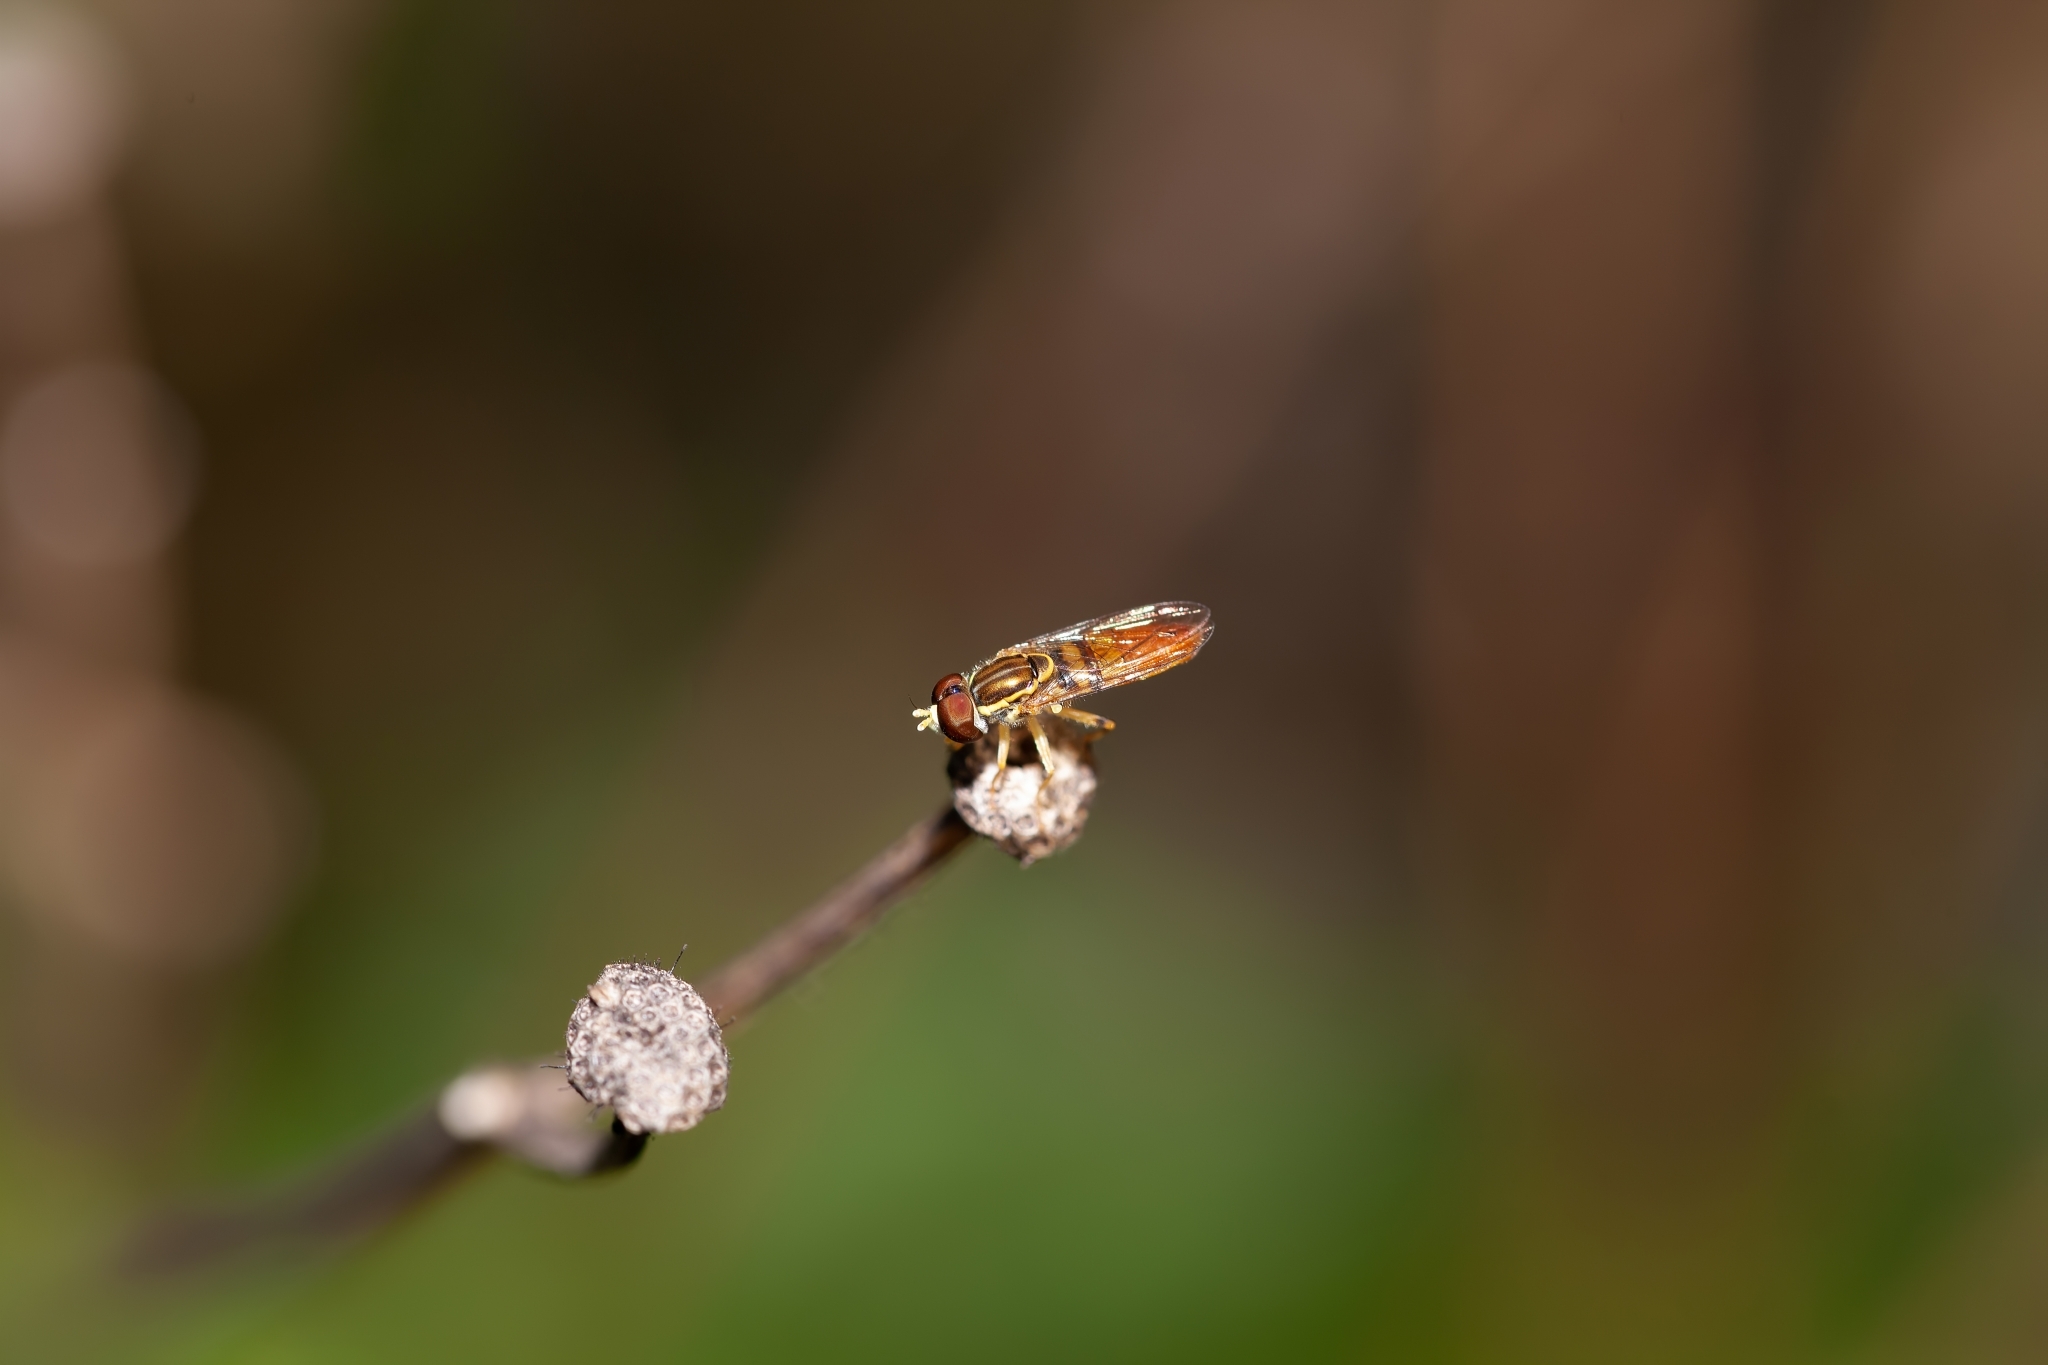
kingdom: Animalia
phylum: Arthropoda
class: Insecta
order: Diptera
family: Syrphidae
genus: Toxomerus
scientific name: Toxomerus floralis
